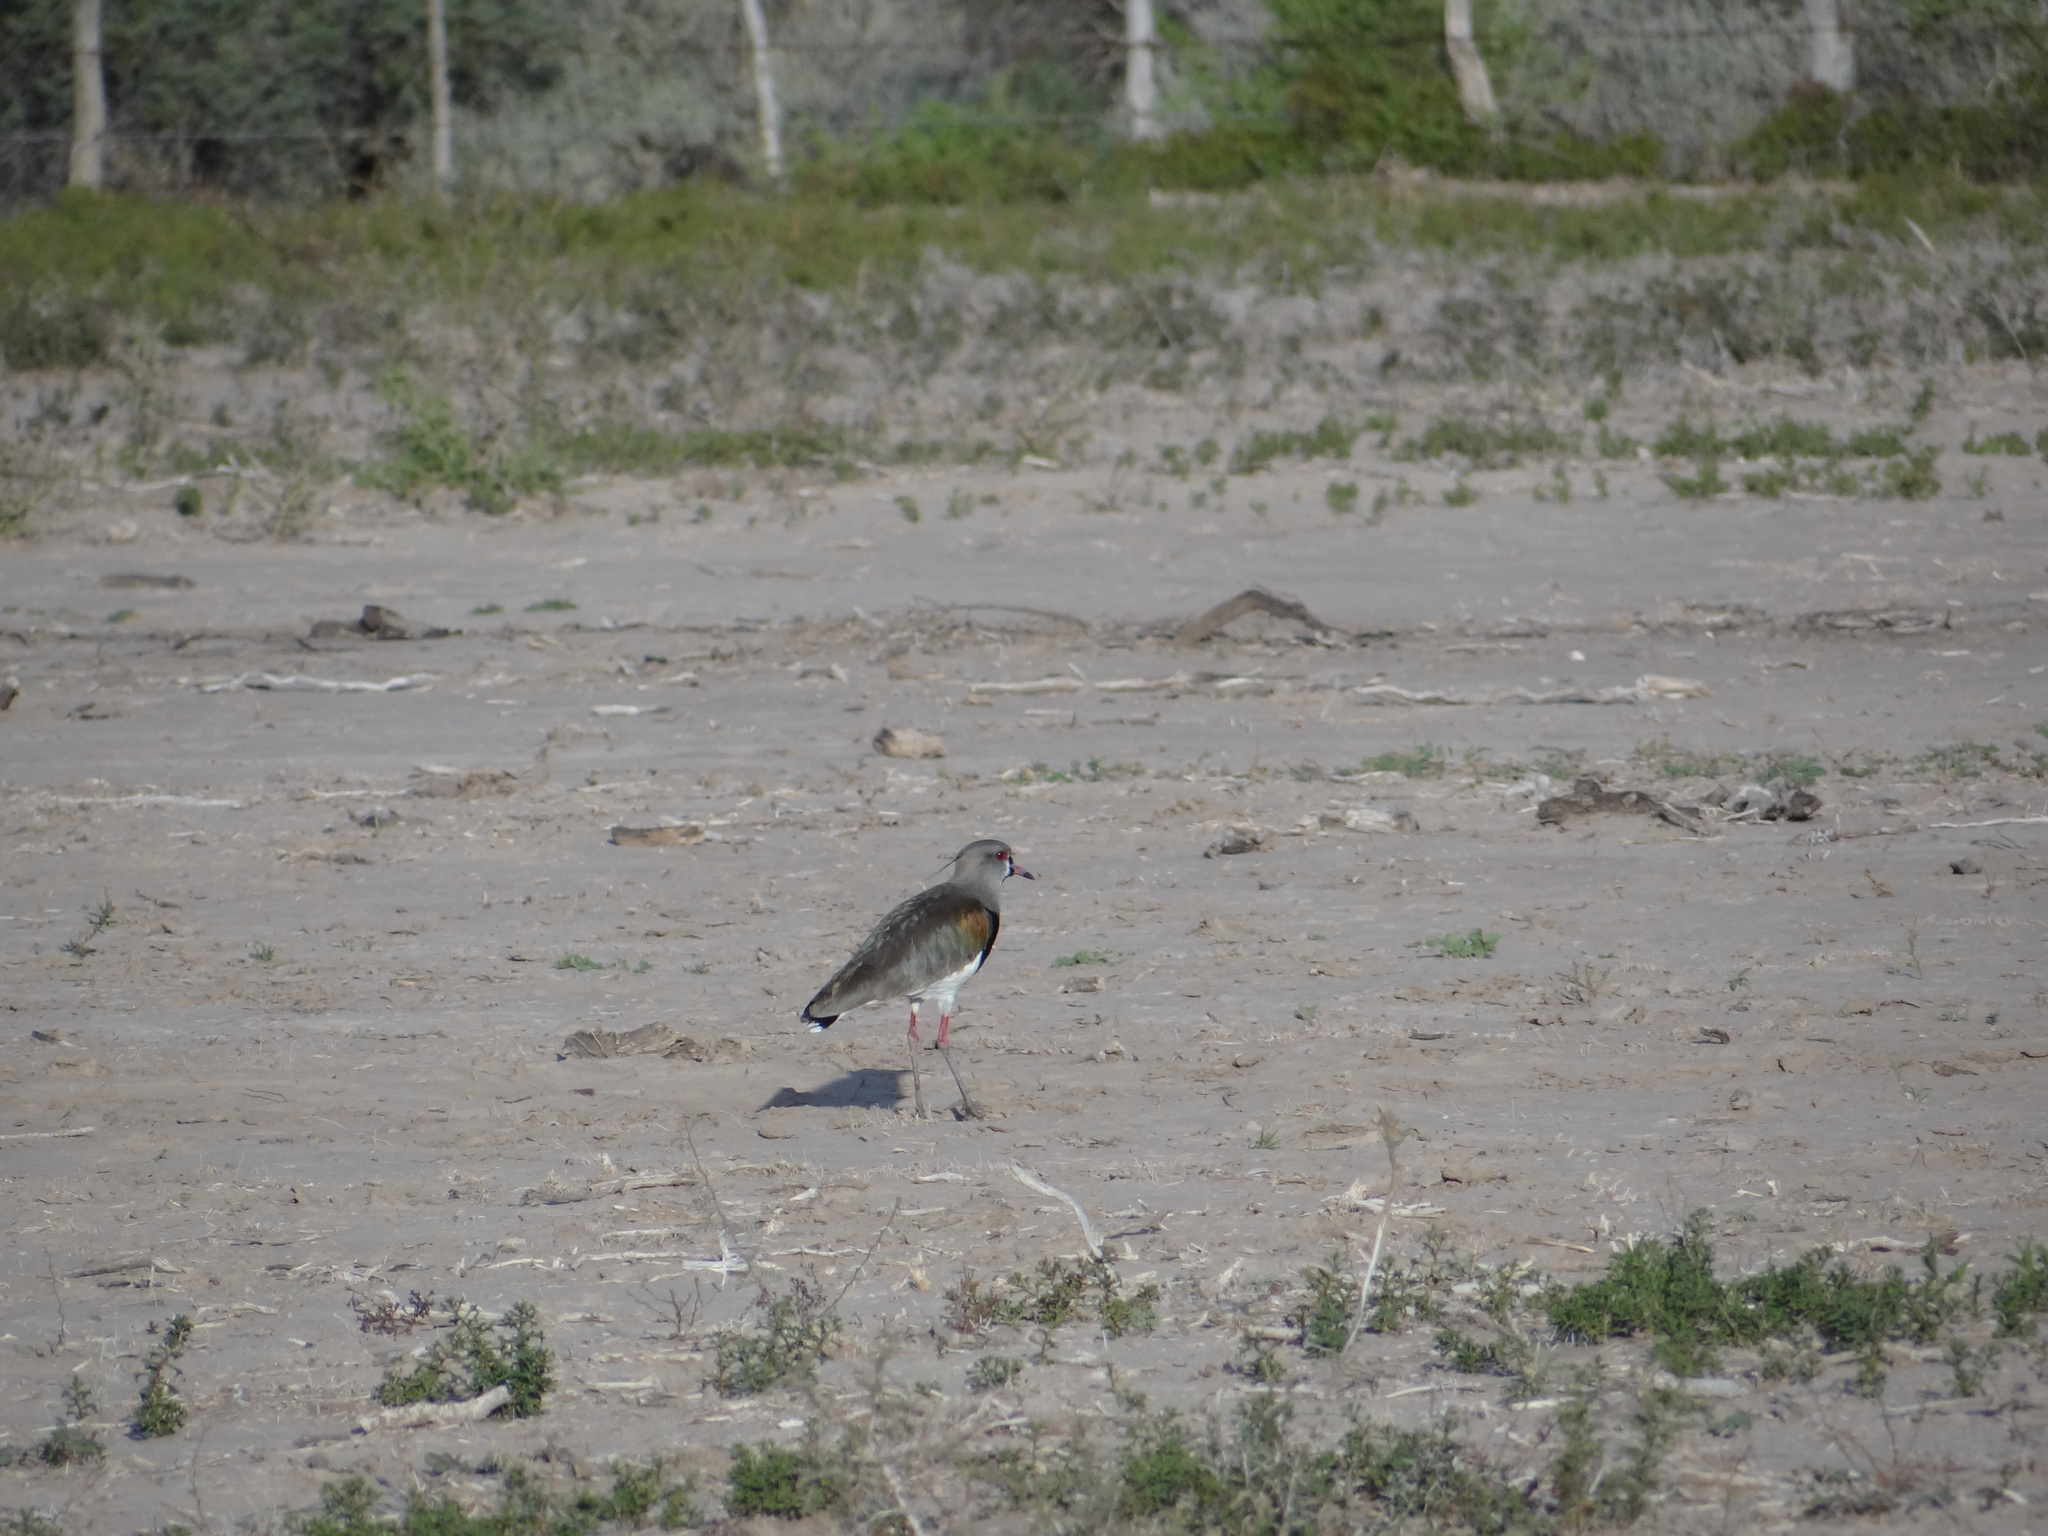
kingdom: Animalia
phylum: Chordata
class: Aves
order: Charadriiformes
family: Charadriidae
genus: Vanellus
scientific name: Vanellus chilensis
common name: Southern lapwing
